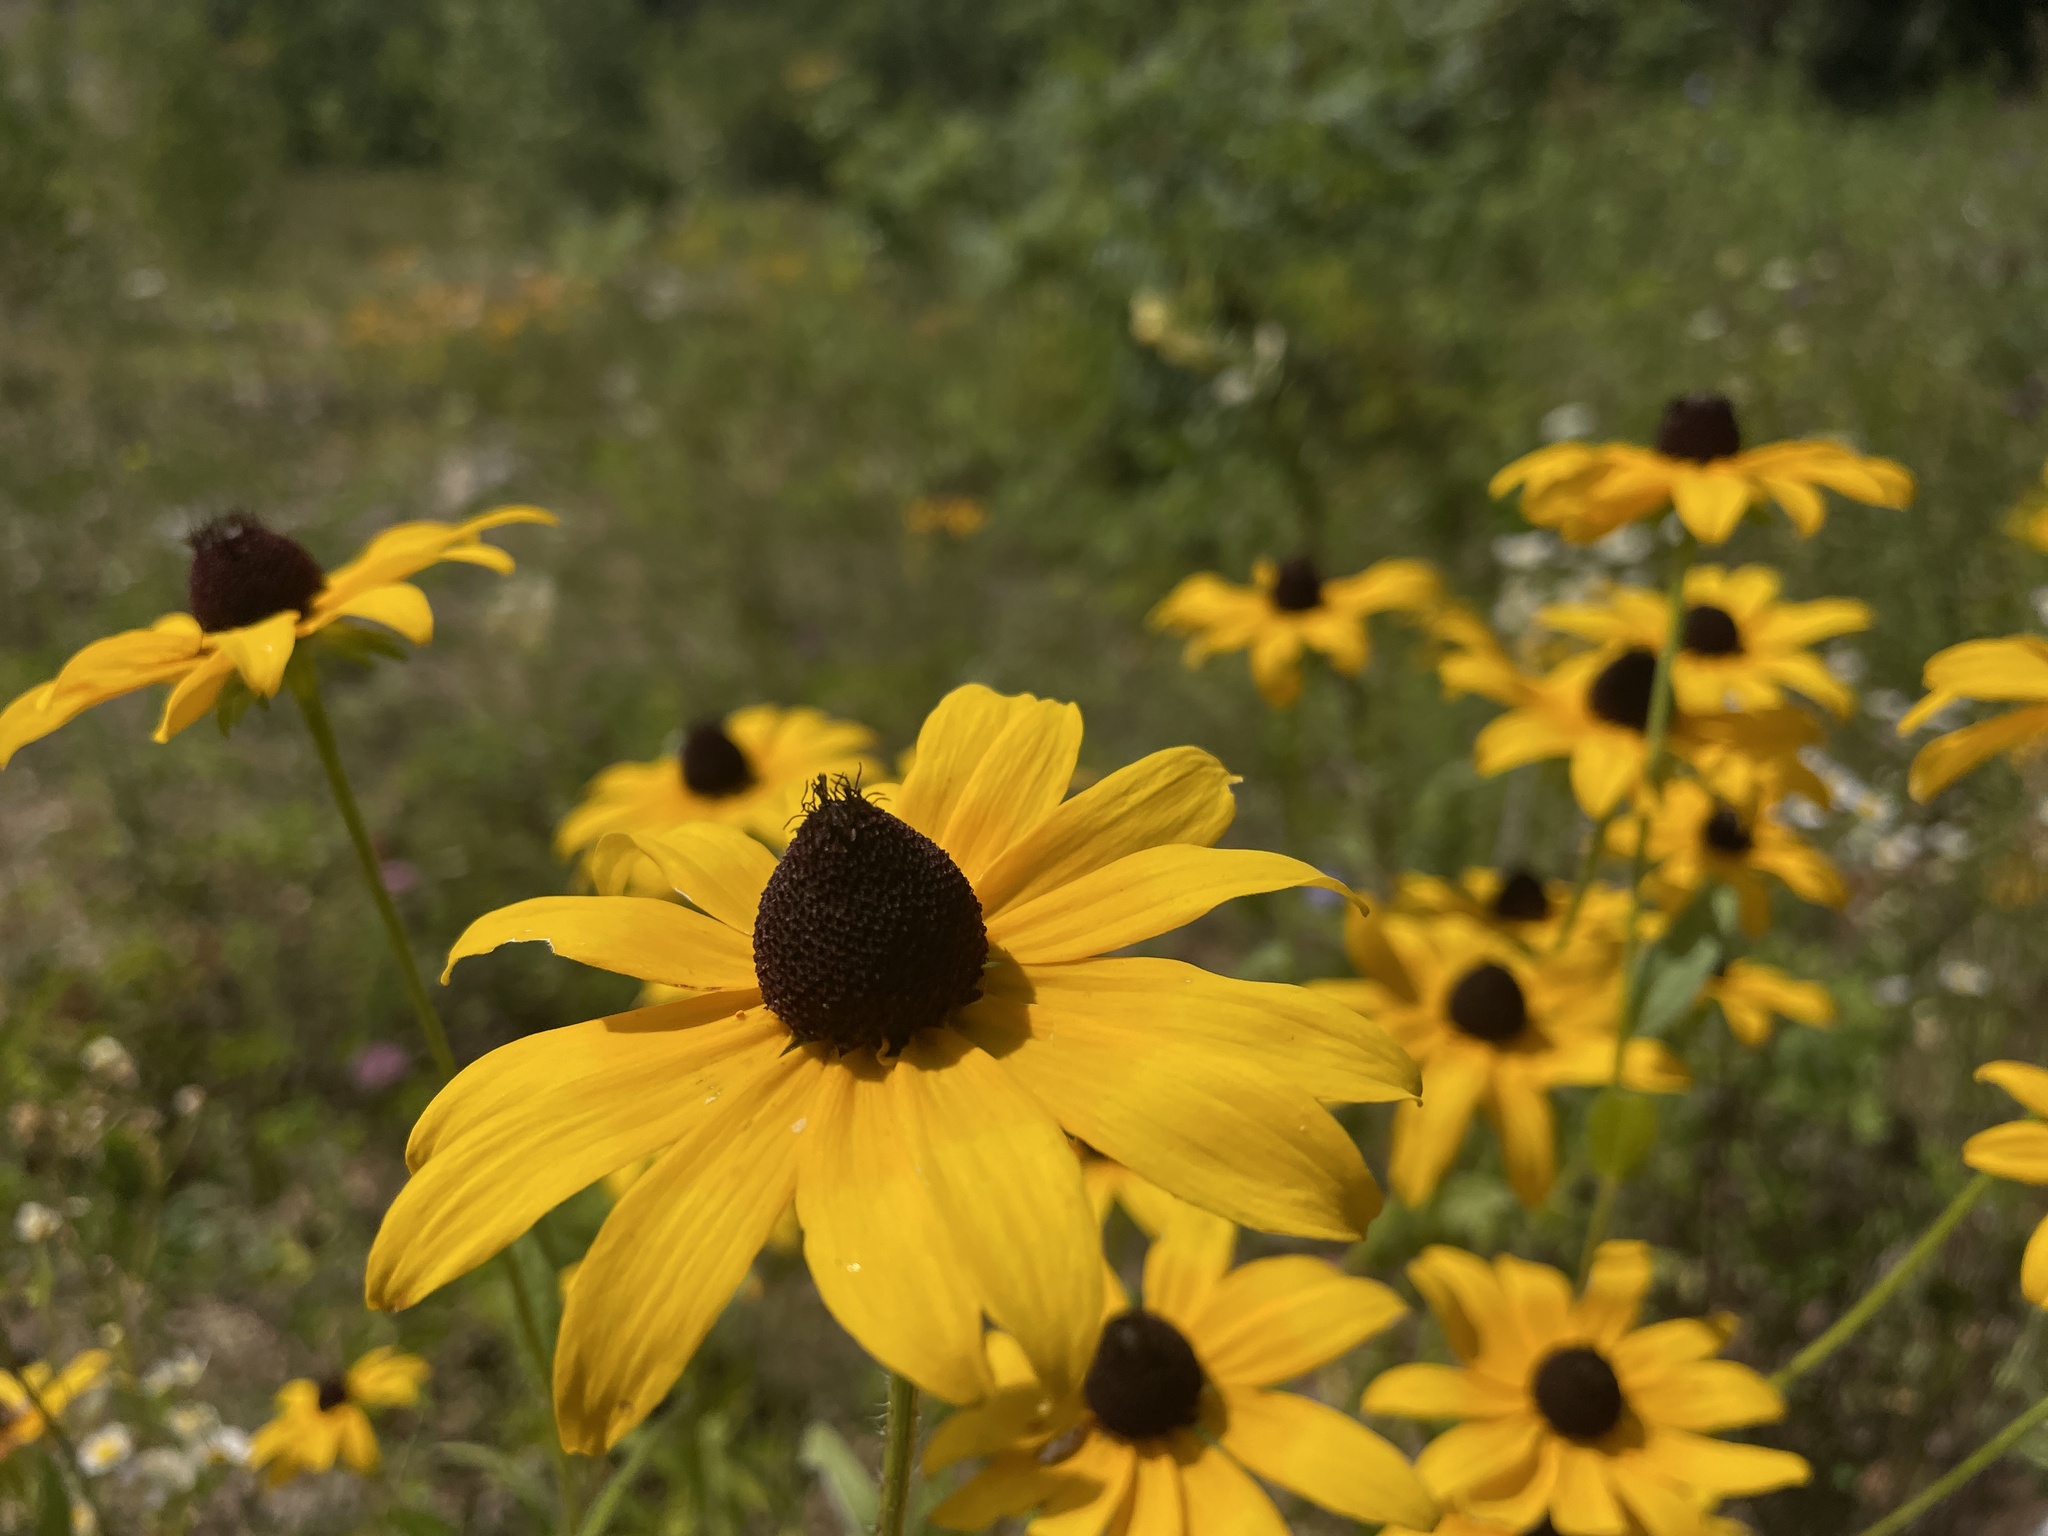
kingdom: Plantae
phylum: Tracheophyta
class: Magnoliopsida
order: Asterales
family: Asteraceae
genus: Rudbeckia
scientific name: Rudbeckia hirta
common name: Black-eyed-susan
